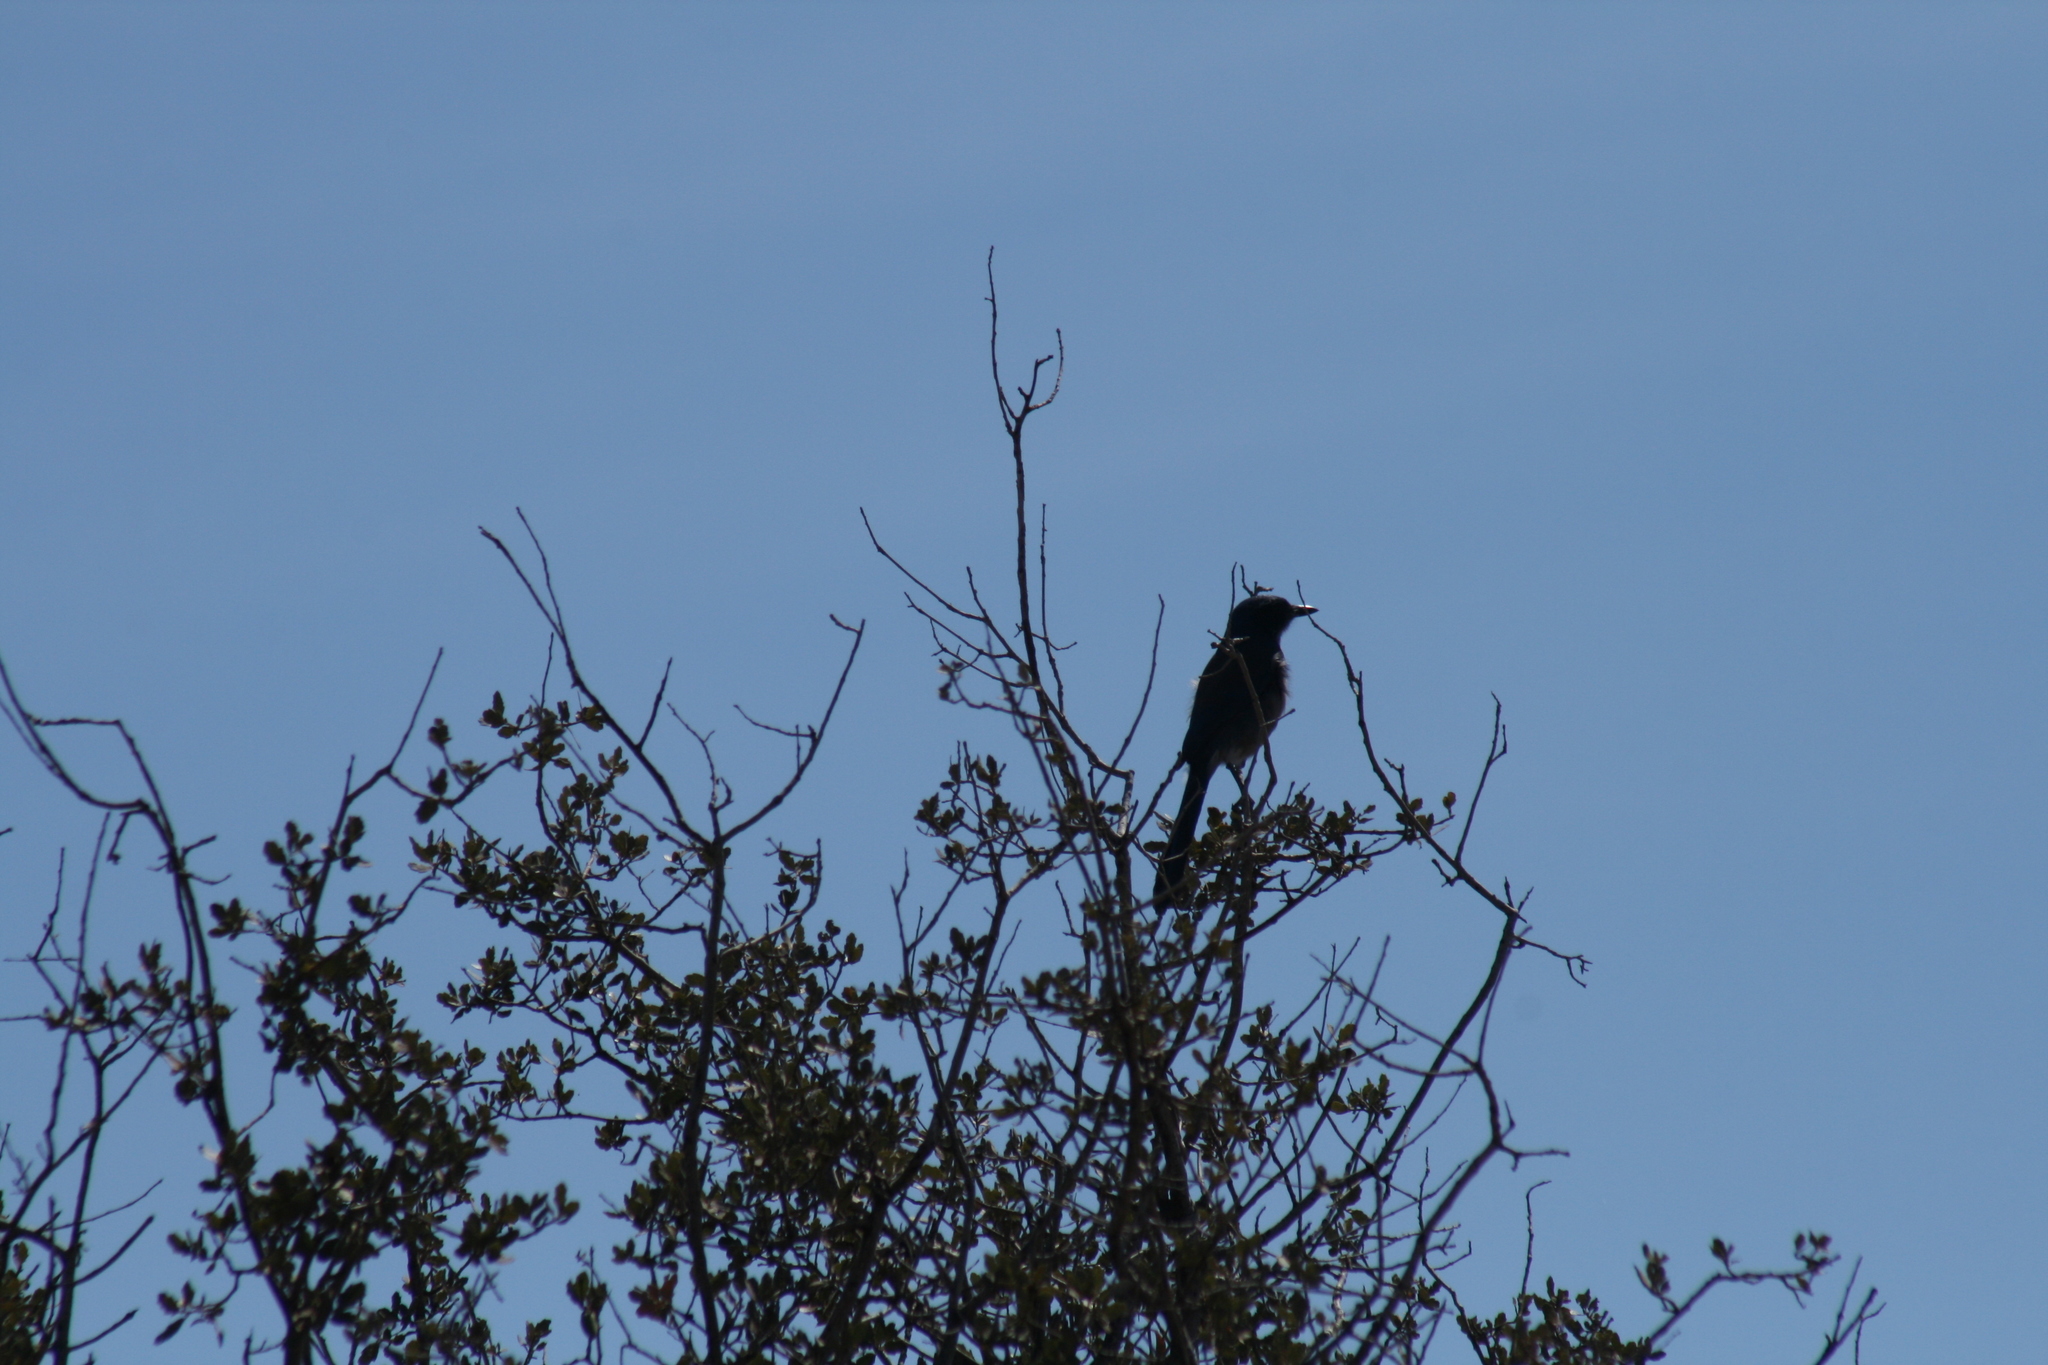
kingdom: Animalia
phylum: Chordata
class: Aves
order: Passeriformes
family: Corvidae
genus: Aphelocoma
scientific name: Aphelocoma californica
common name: California scrub-jay
